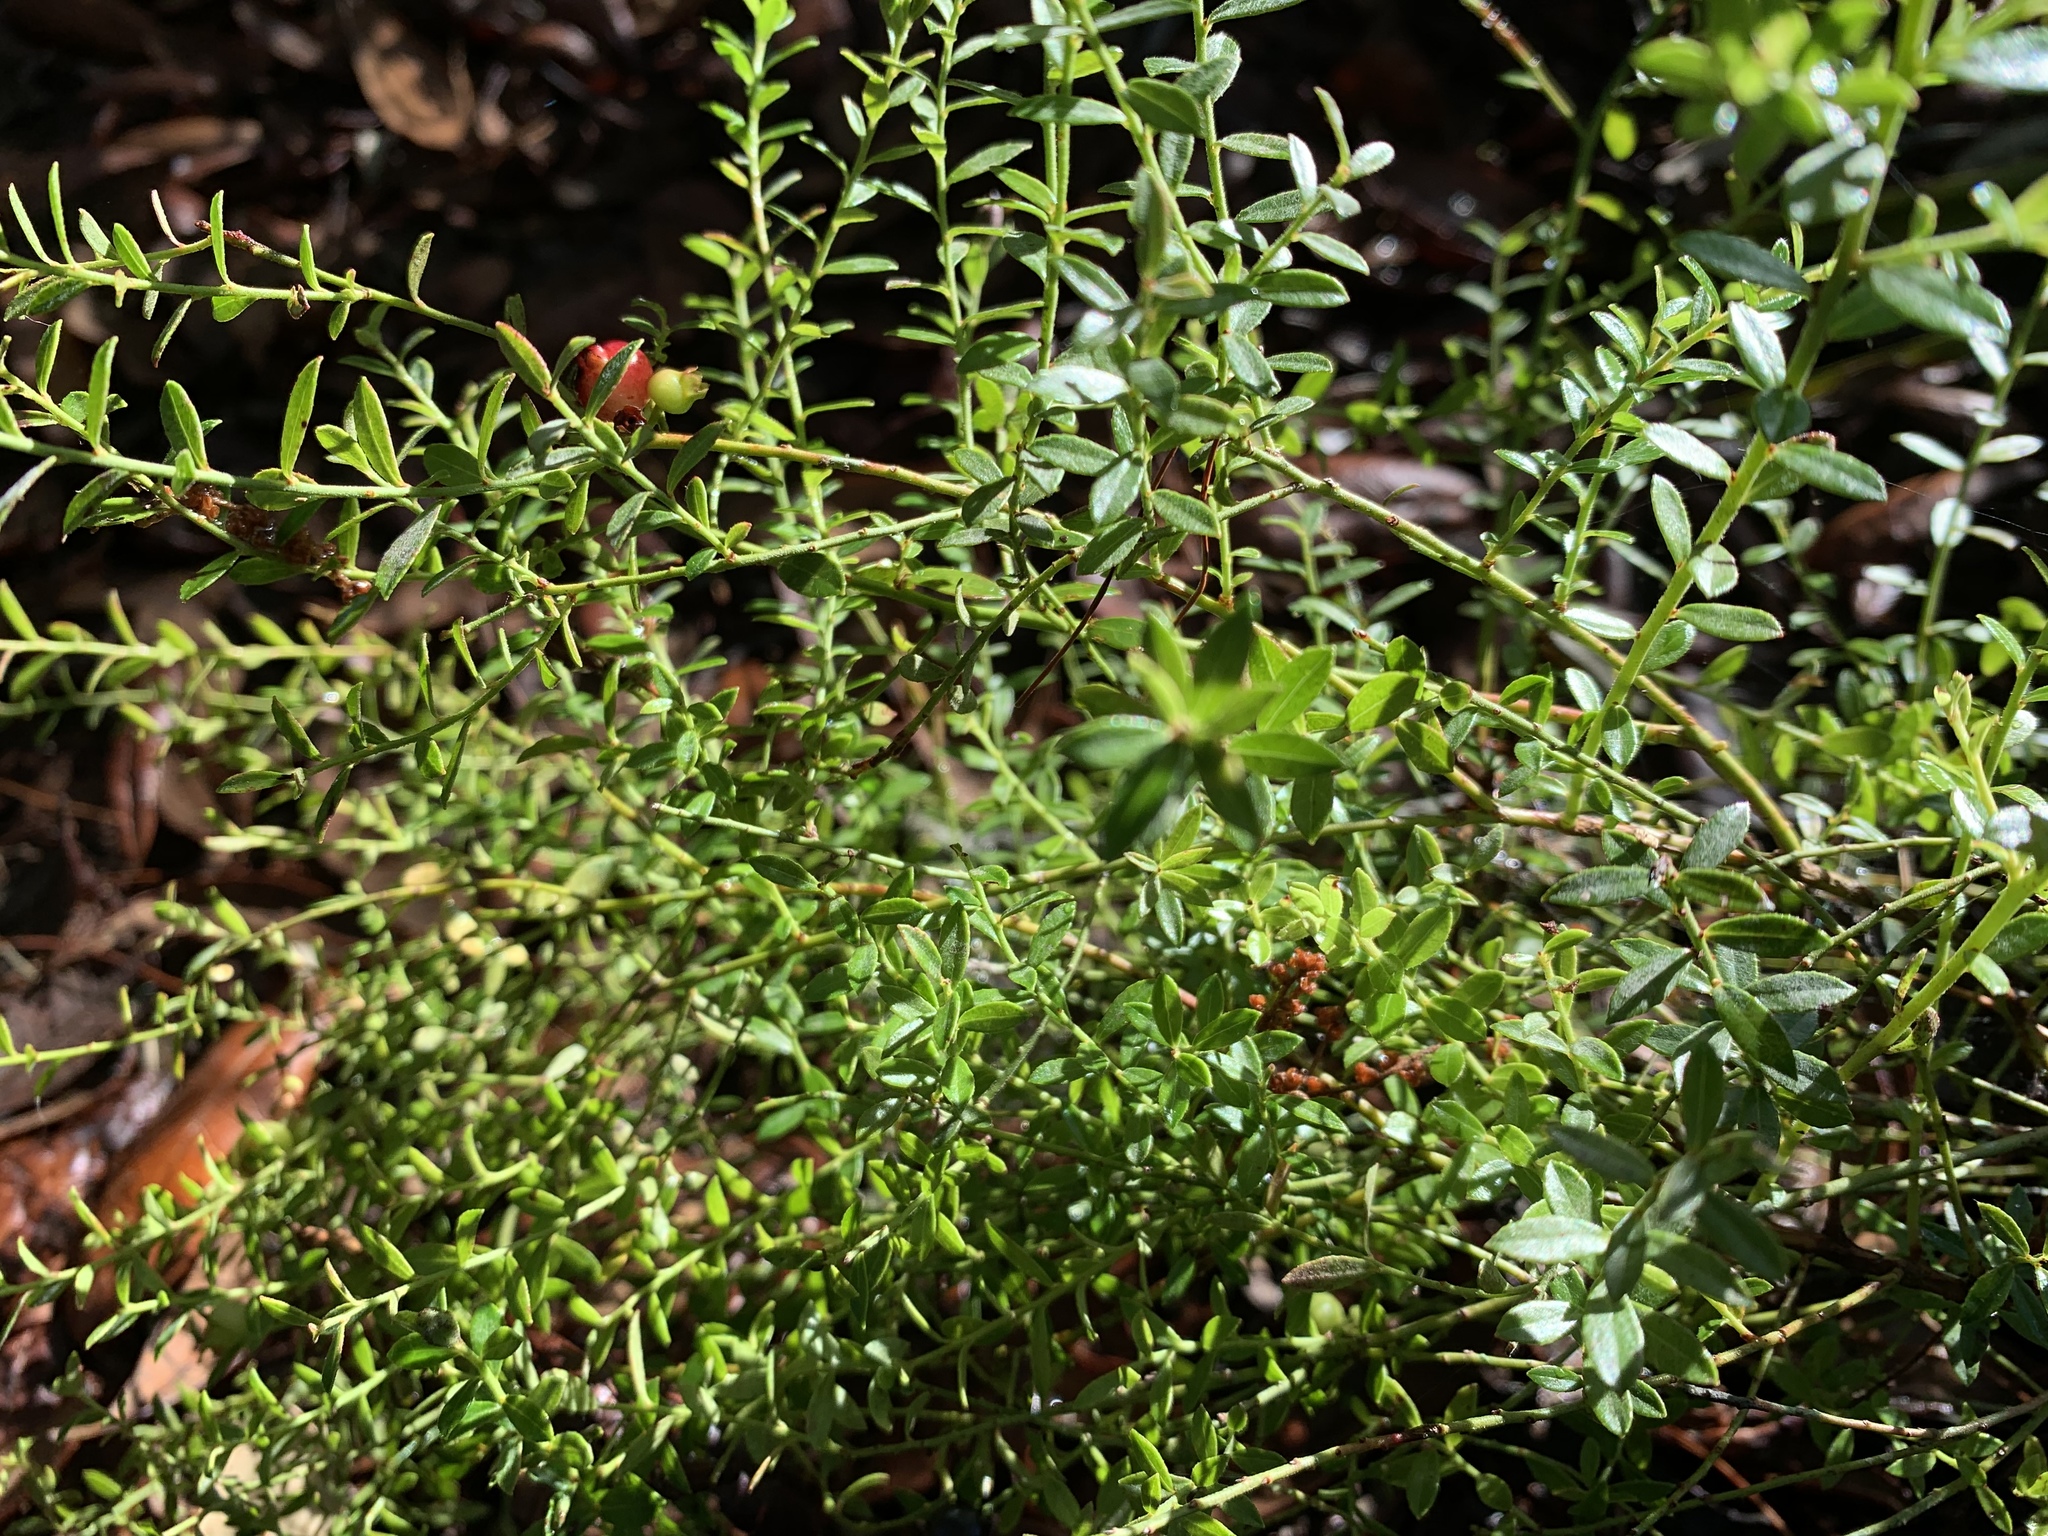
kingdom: Plantae
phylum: Tracheophyta
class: Magnoliopsida
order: Ericales
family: Ericaceae
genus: Vaccinium
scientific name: Vaccinium myrsinites
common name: Evergreen blueberry
